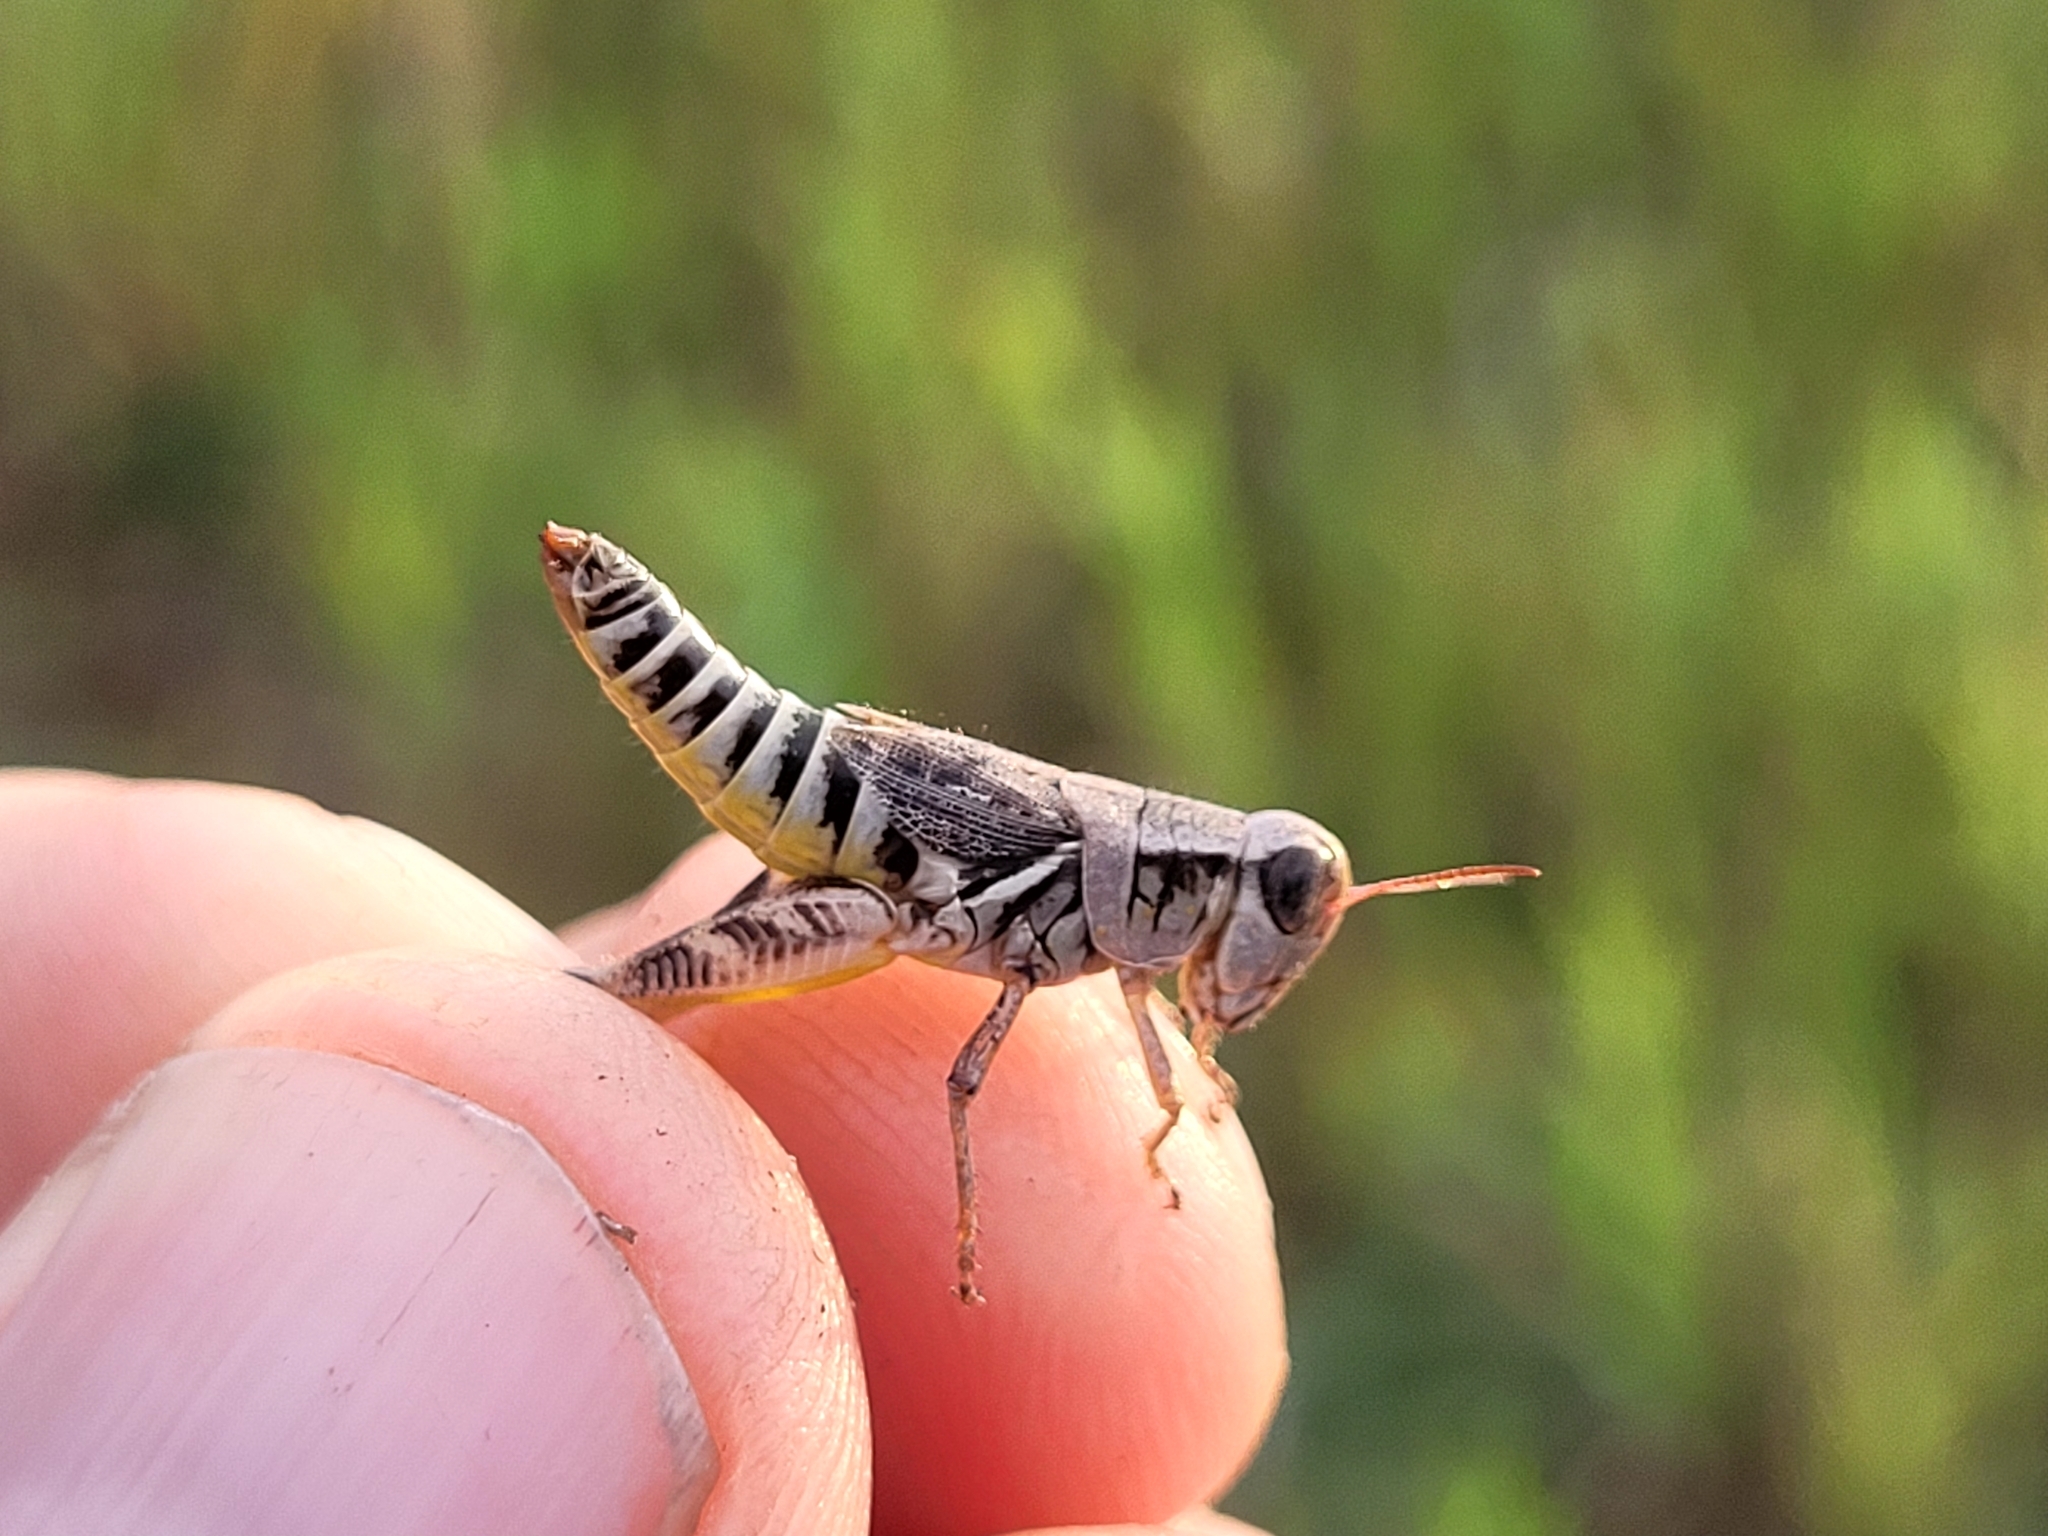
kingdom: Animalia
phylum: Arthropoda
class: Insecta
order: Orthoptera
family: Acrididae
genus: Melanoplus
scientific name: Melanoplus dawsoni
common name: Dawson grasshopper
